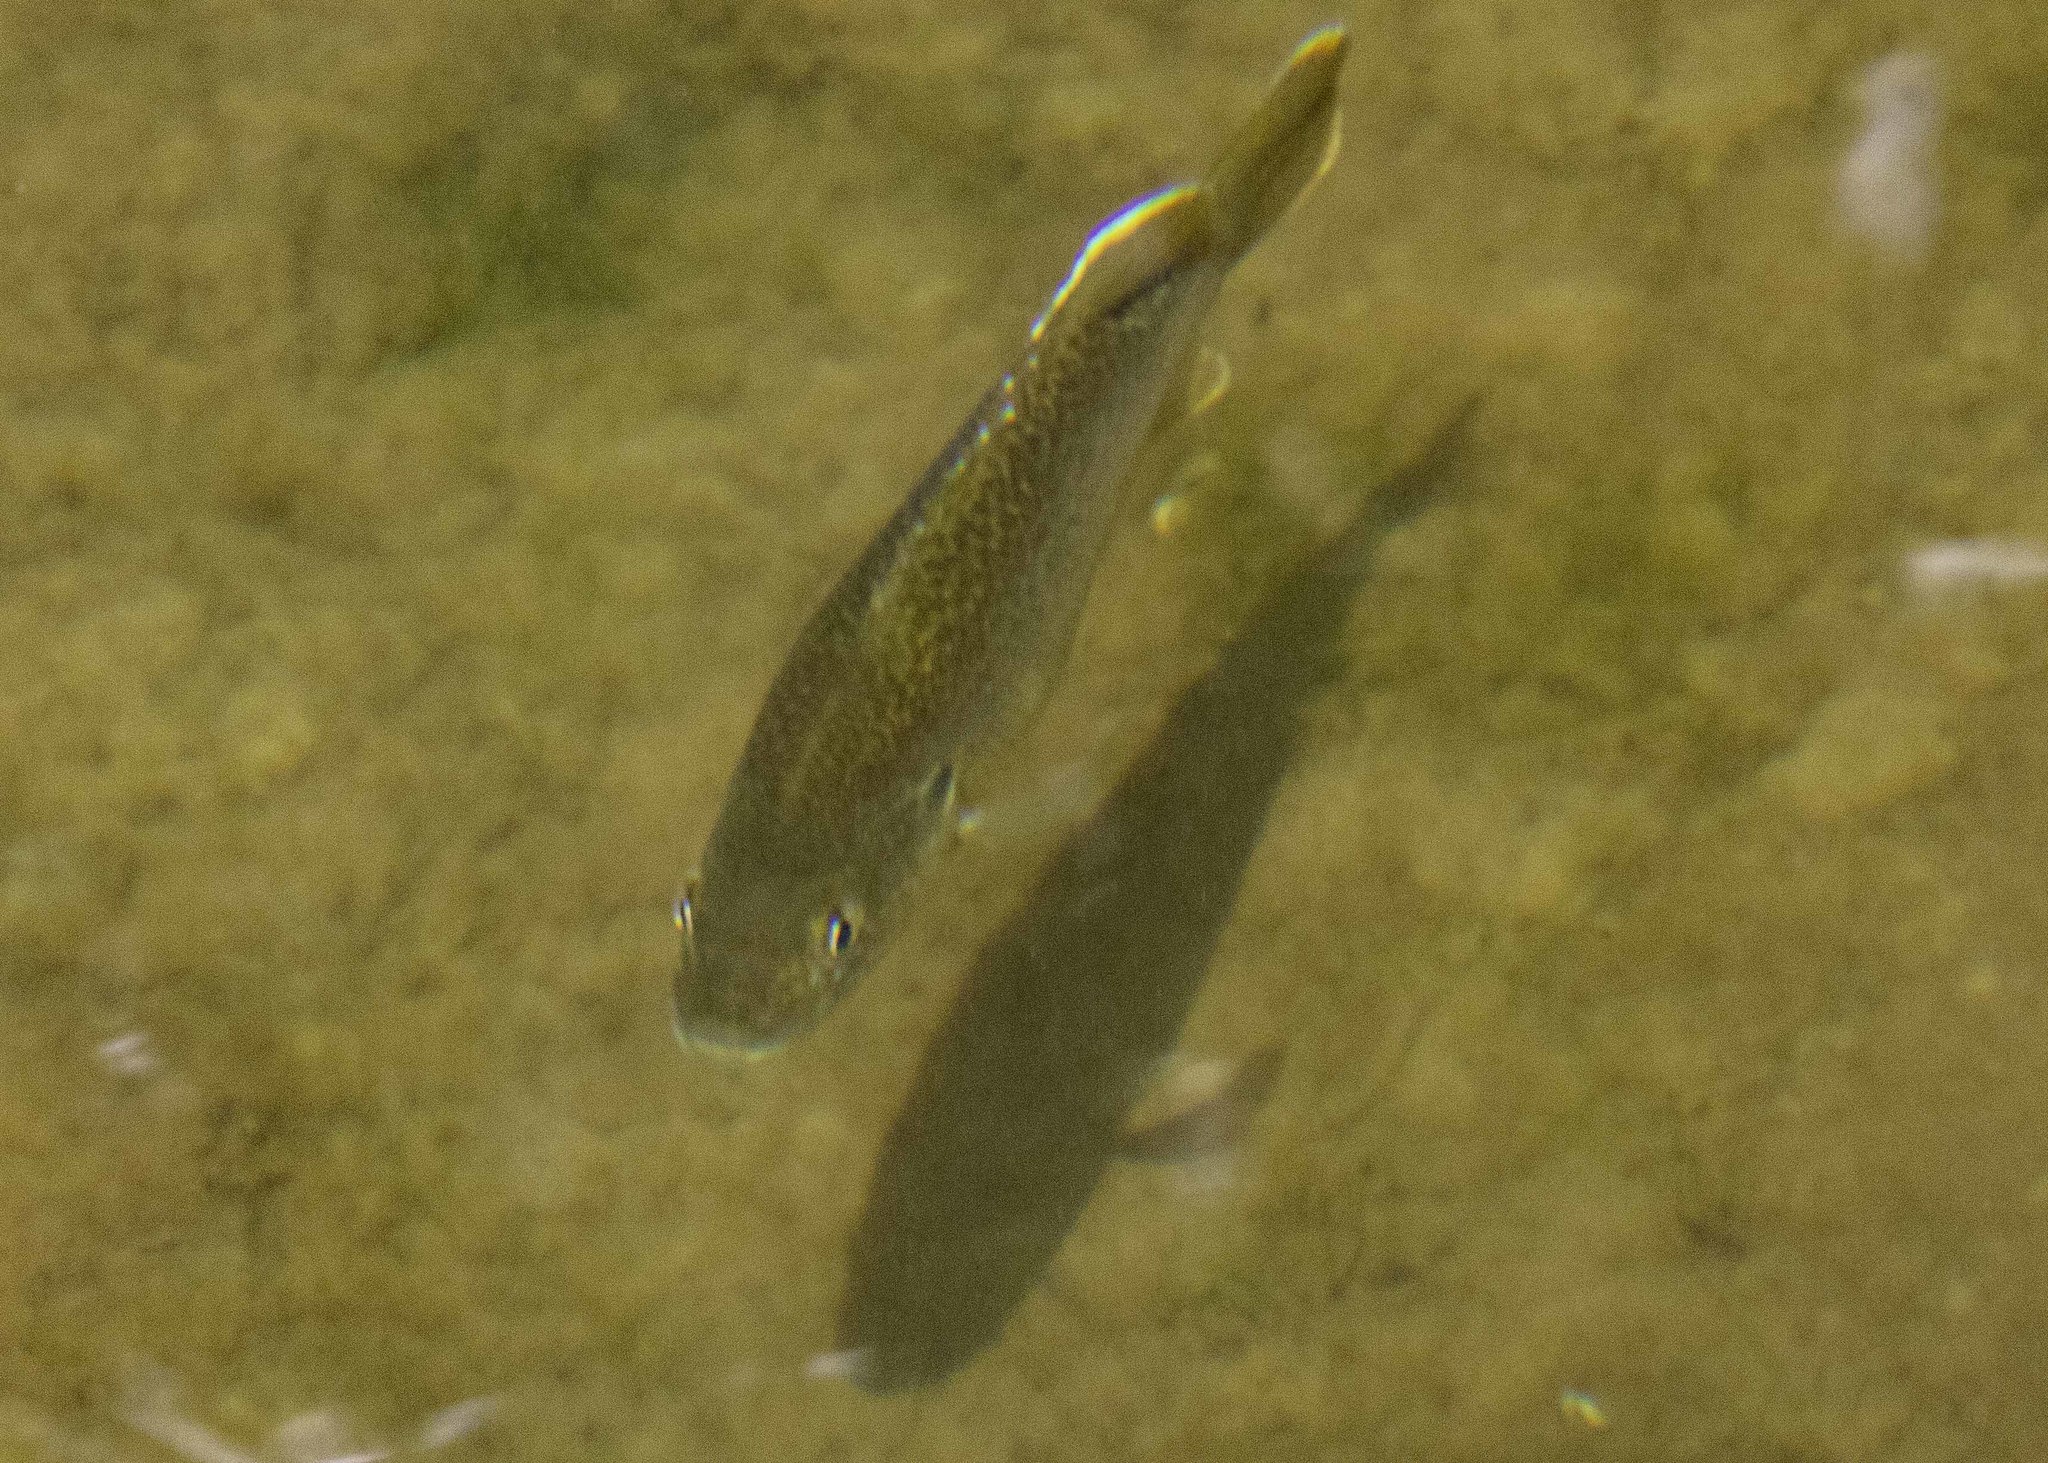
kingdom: Animalia
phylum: Chordata
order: Perciformes
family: Centrarchidae
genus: Lepomis
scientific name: Lepomis cyanellus
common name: Green sunfish
